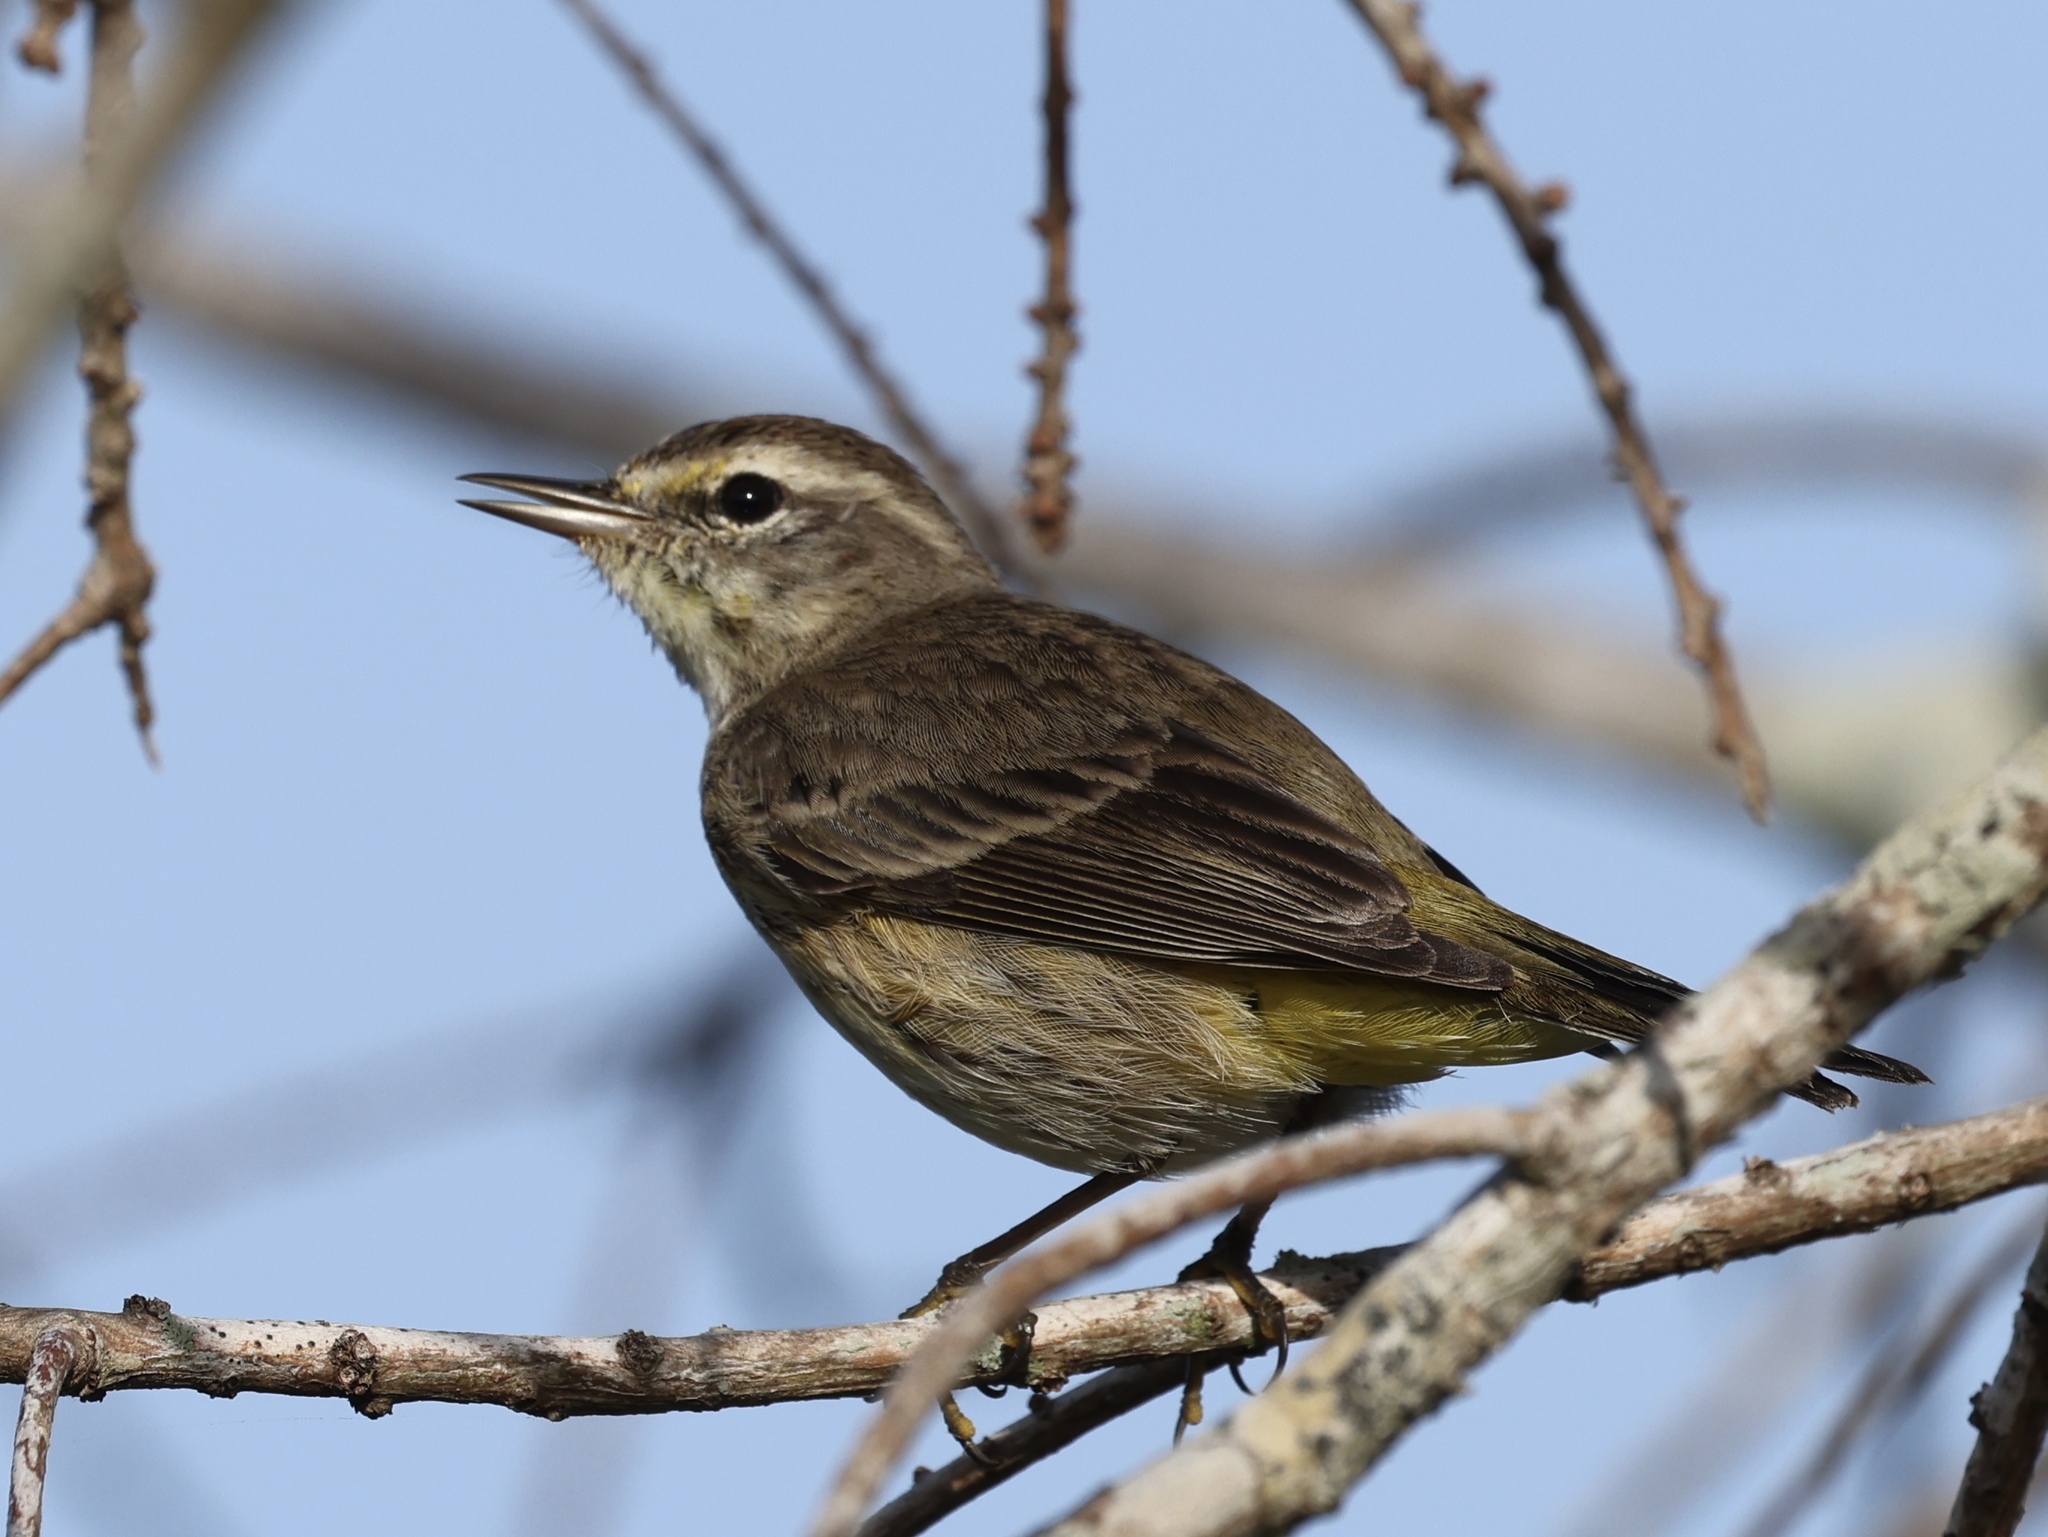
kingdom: Animalia
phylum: Chordata
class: Aves
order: Passeriformes
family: Parulidae
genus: Setophaga
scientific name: Setophaga palmarum
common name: Palm warbler
